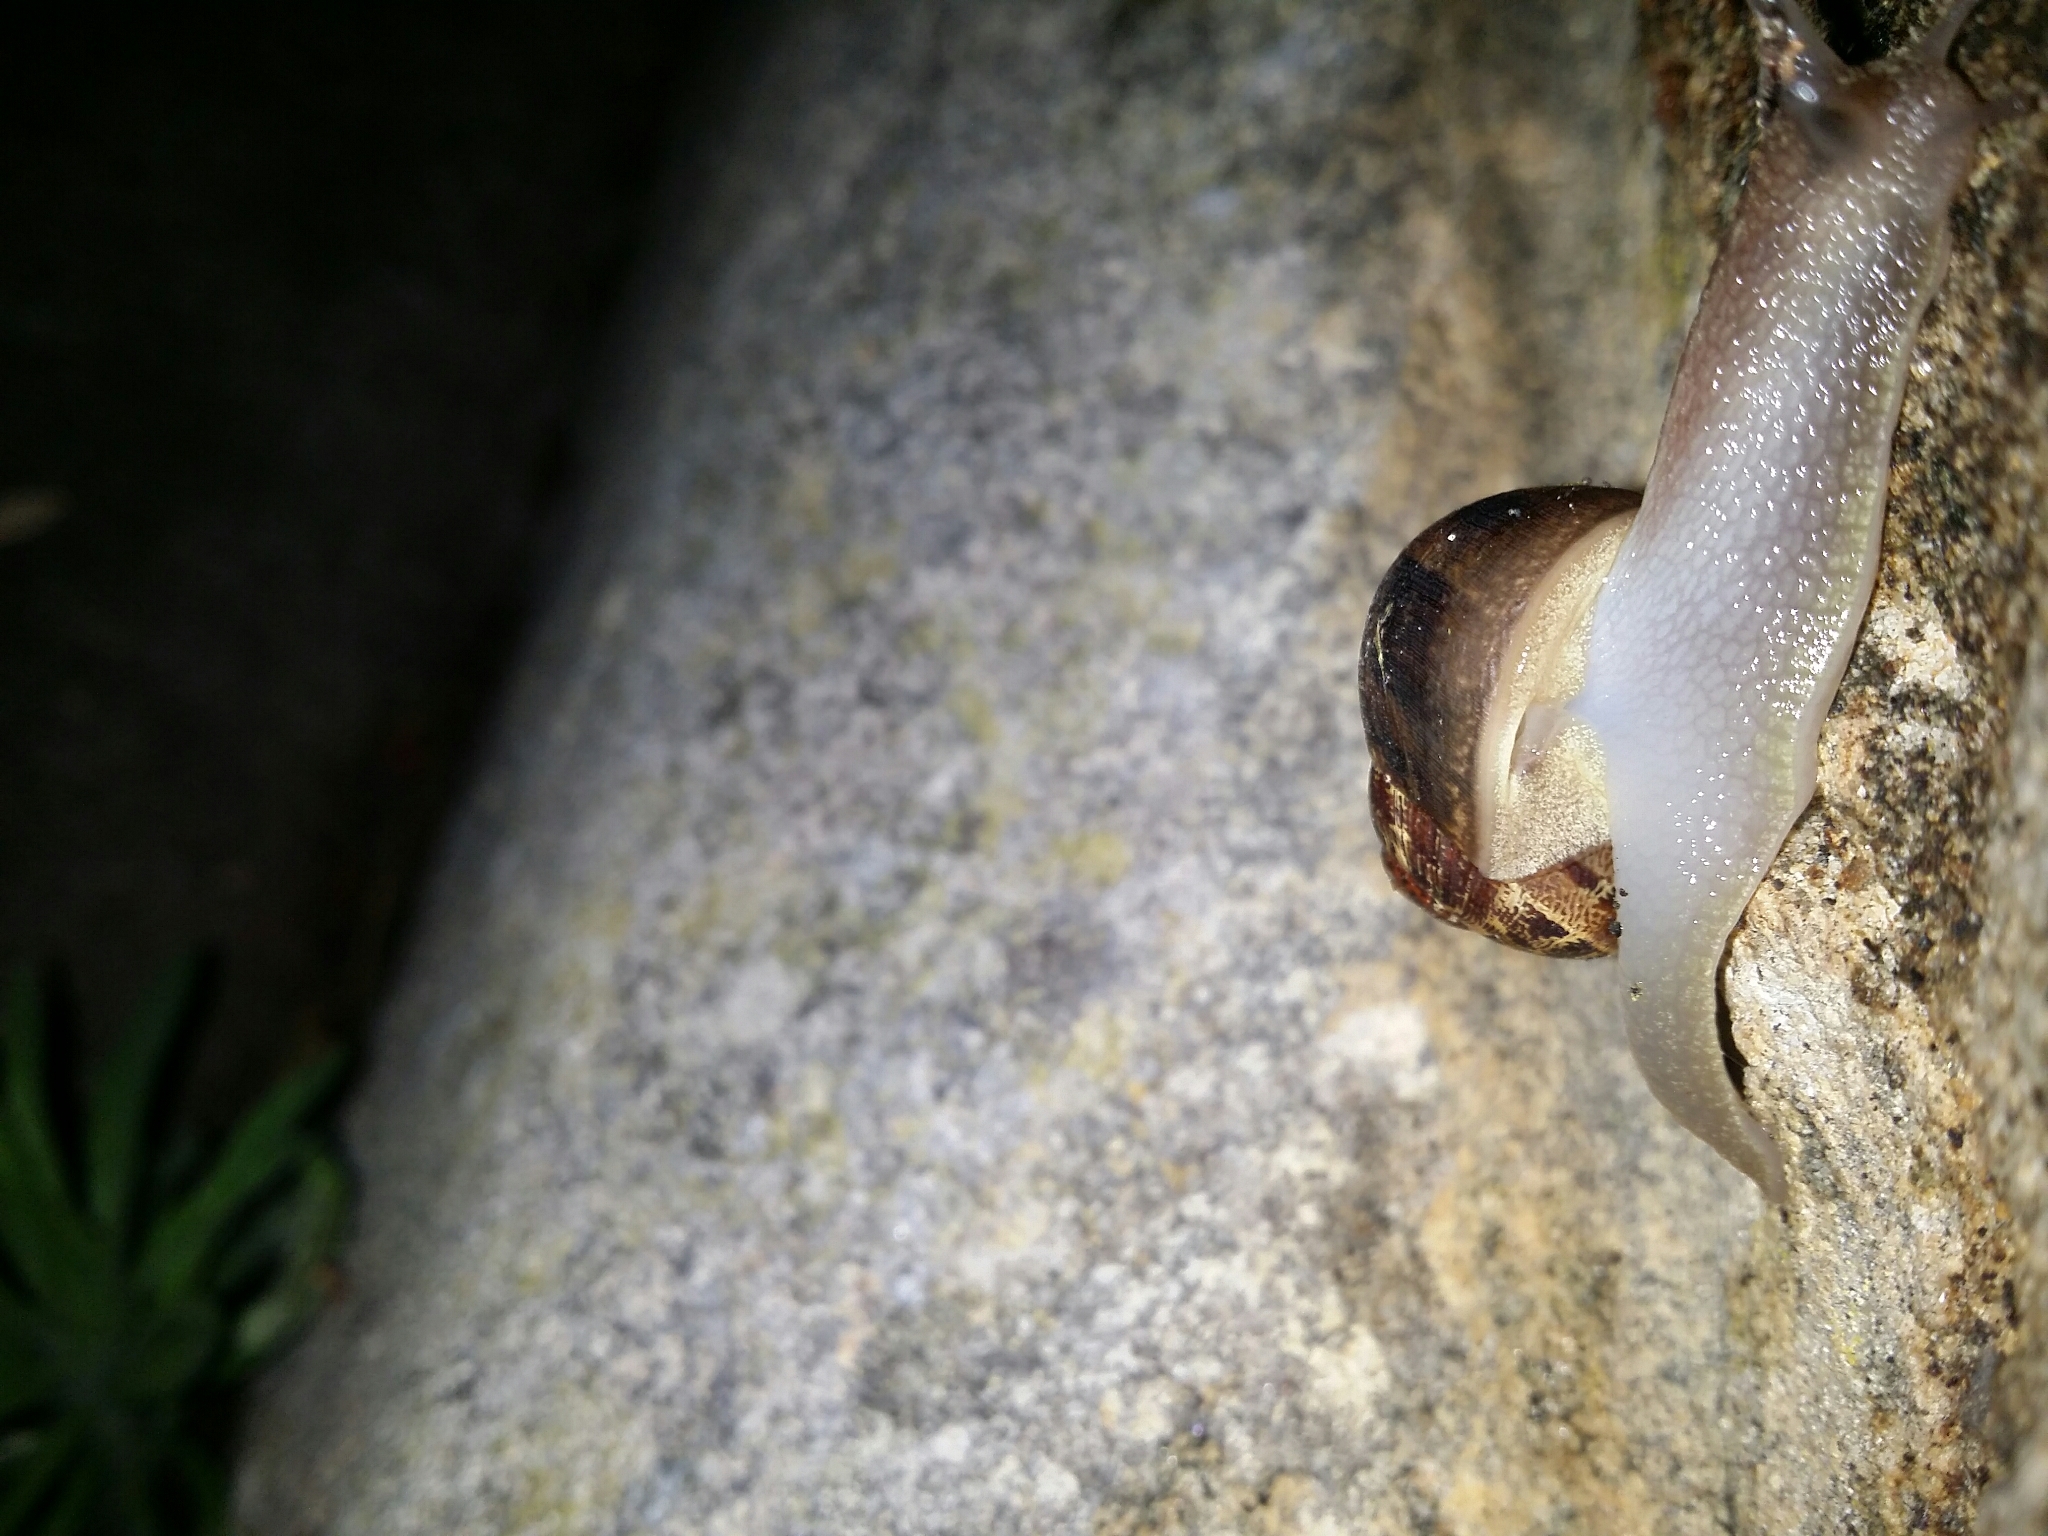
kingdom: Animalia
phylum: Mollusca
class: Gastropoda
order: Stylommatophora
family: Helicidae
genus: Cornu
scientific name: Cornu aspersum
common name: Brown garden snail
